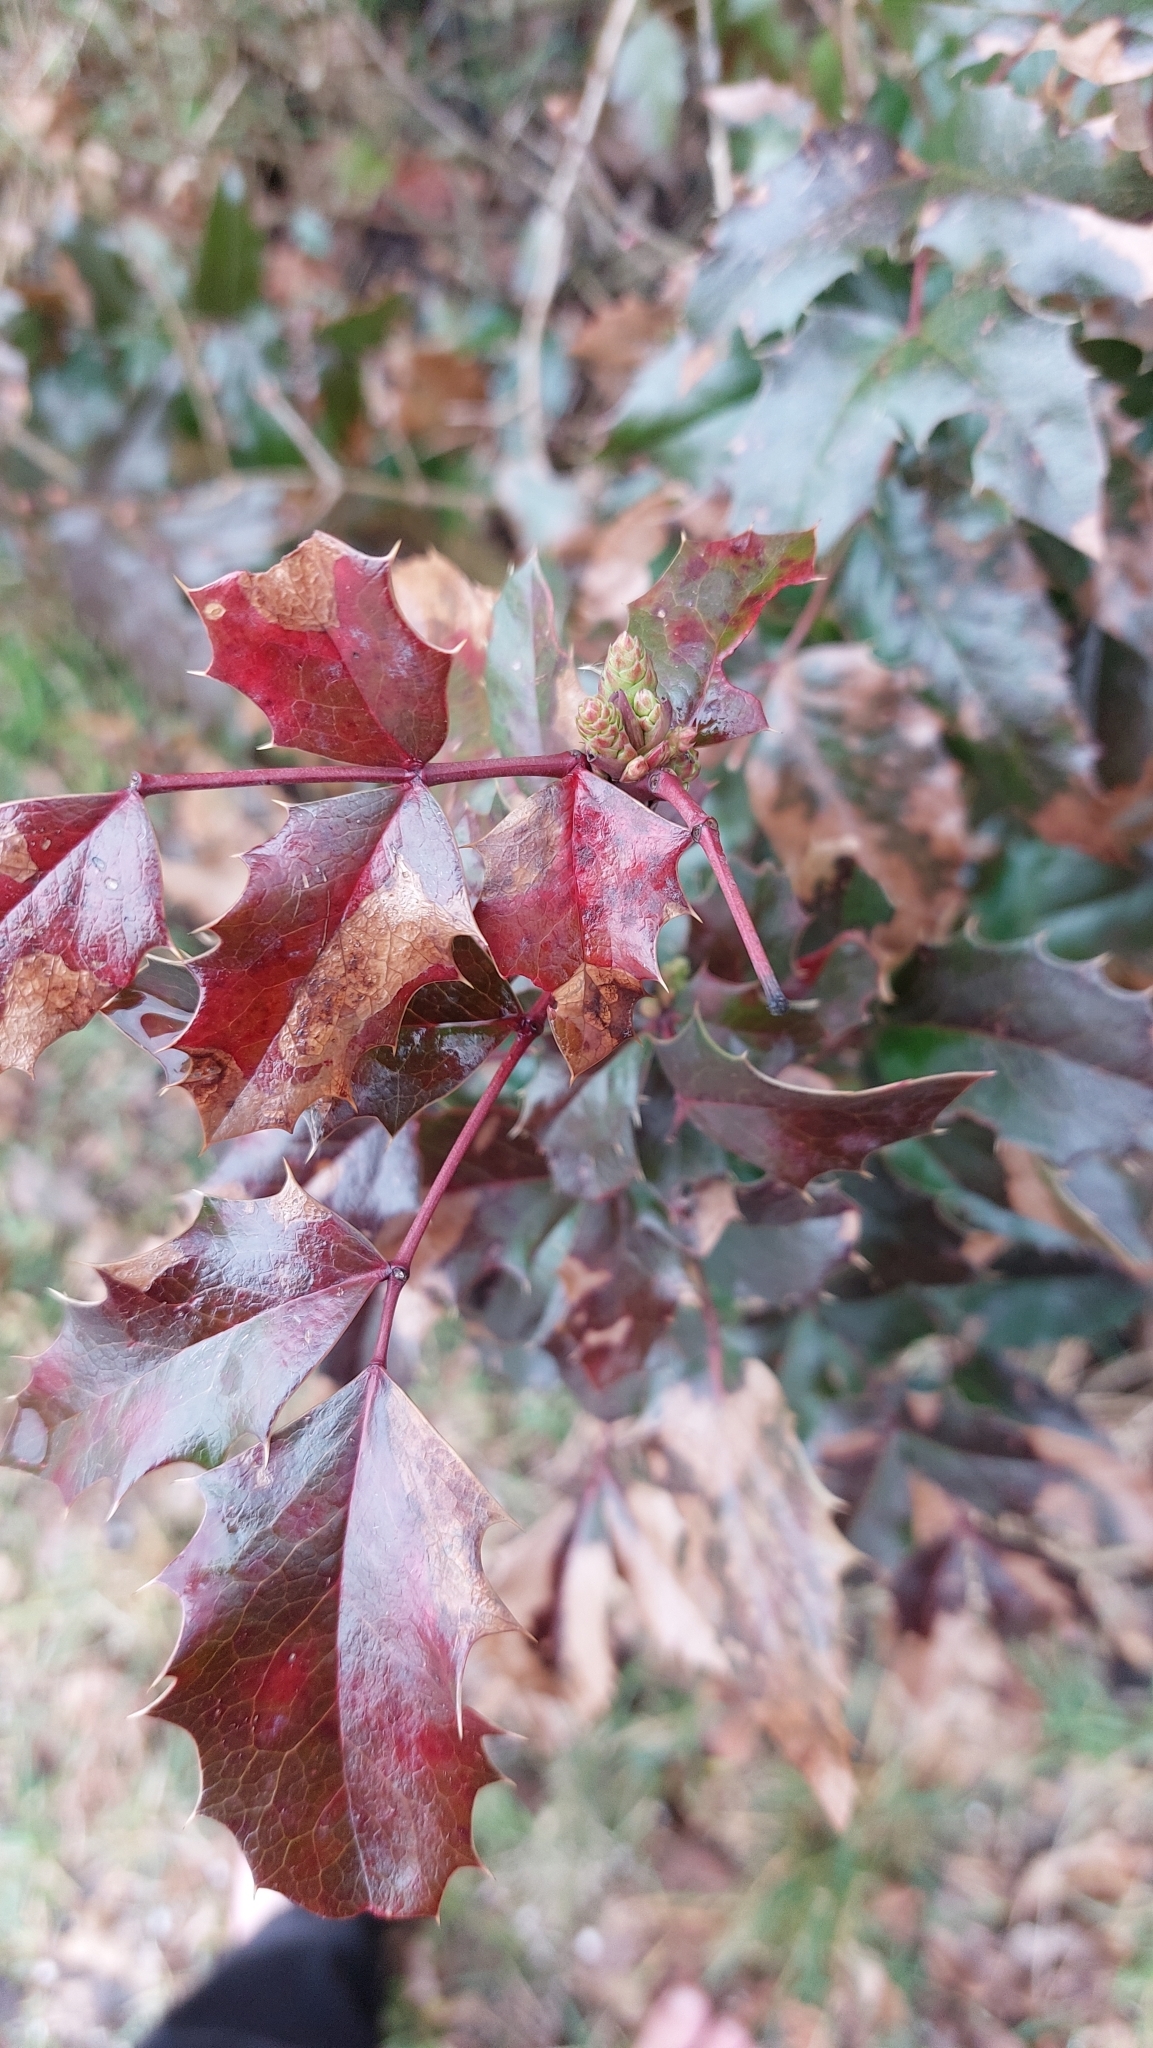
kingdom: Plantae
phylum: Tracheophyta
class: Magnoliopsida
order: Ranunculales
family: Berberidaceae
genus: Mahonia
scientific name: Mahonia aquifolium
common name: Oregon-grape
